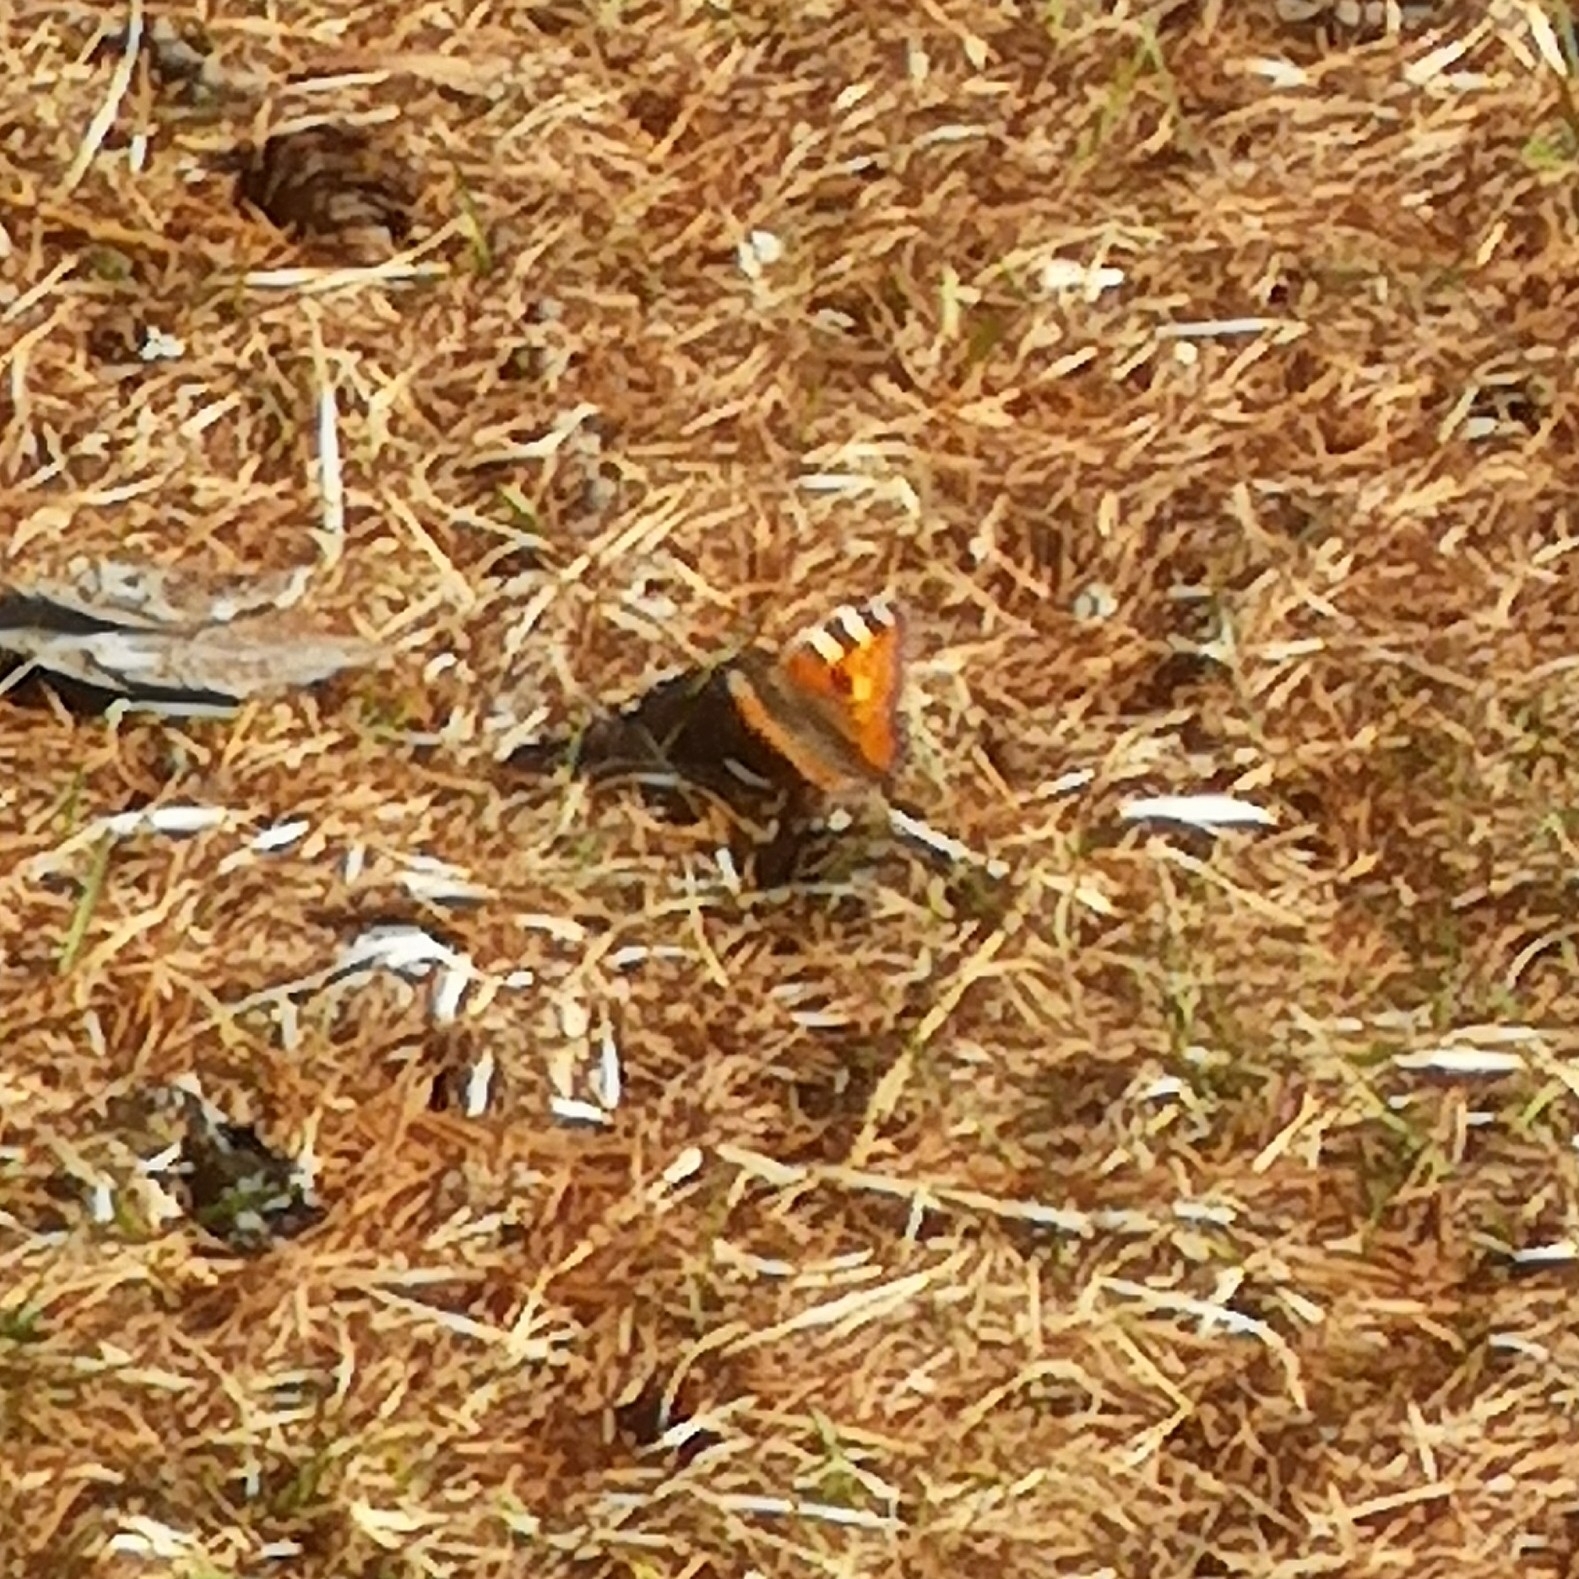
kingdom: Animalia
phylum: Arthropoda
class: Insecta
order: Lepidoptera
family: Nymphalidae
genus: Aglais
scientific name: Aglais urticae
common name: Small tortoiseshell
